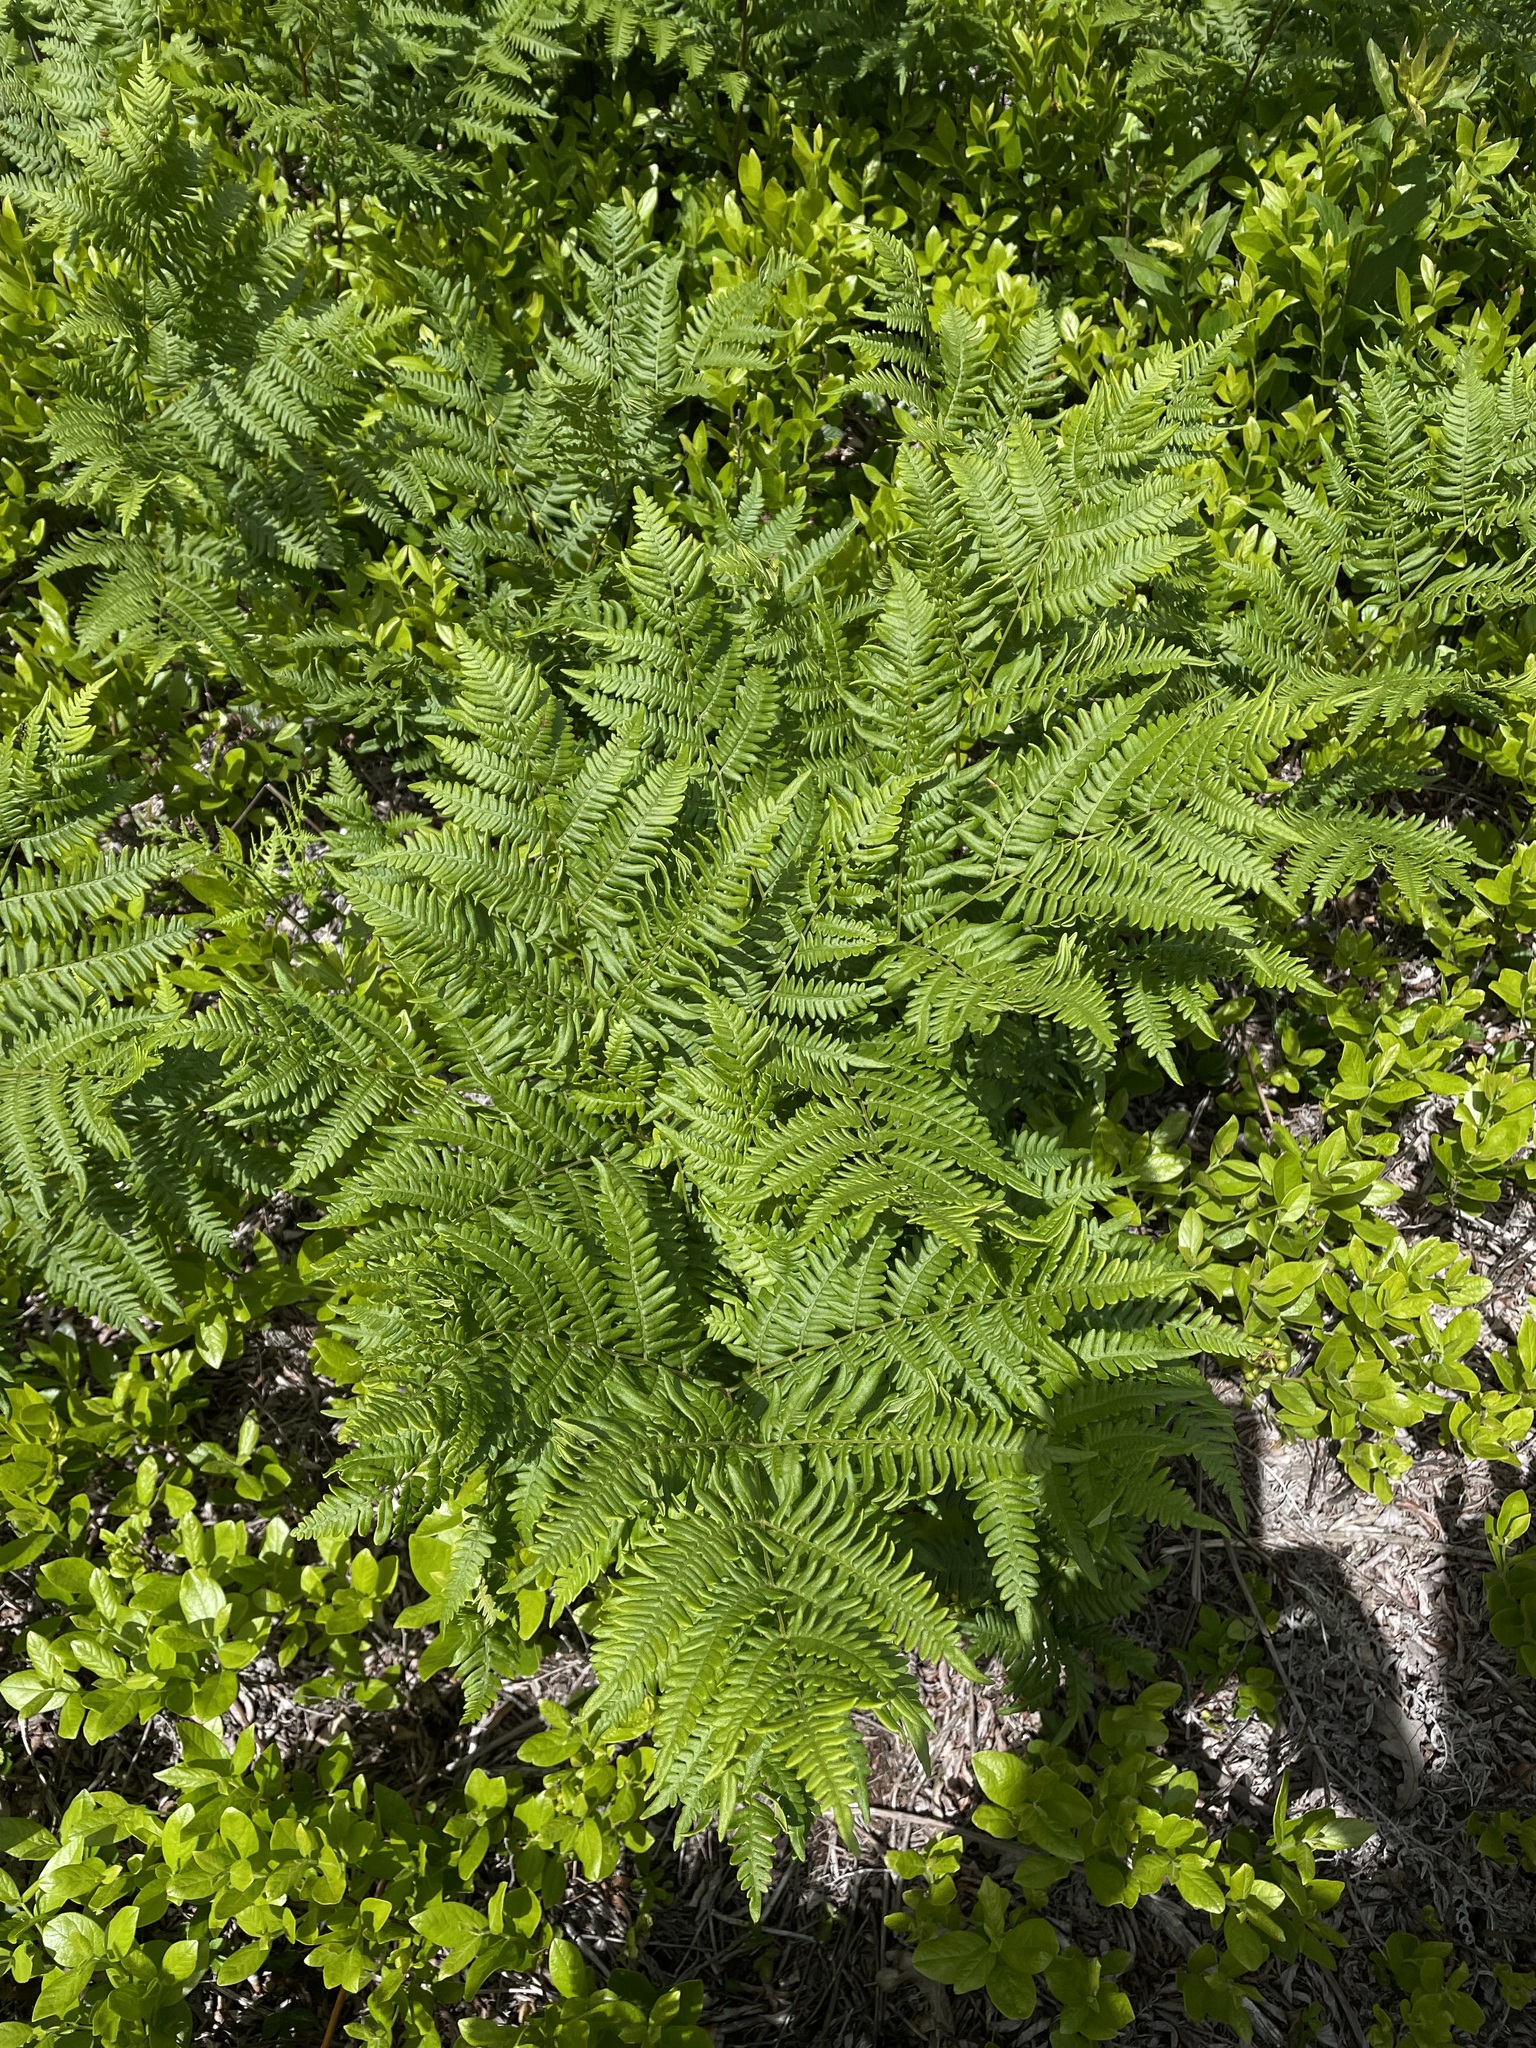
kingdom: Plantae
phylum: Tracheophyta
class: Polypodiopsida
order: Polypodiales
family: Dennstaedtiaceae
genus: Pteridium
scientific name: Pteridium aquilinum
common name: Bracken
